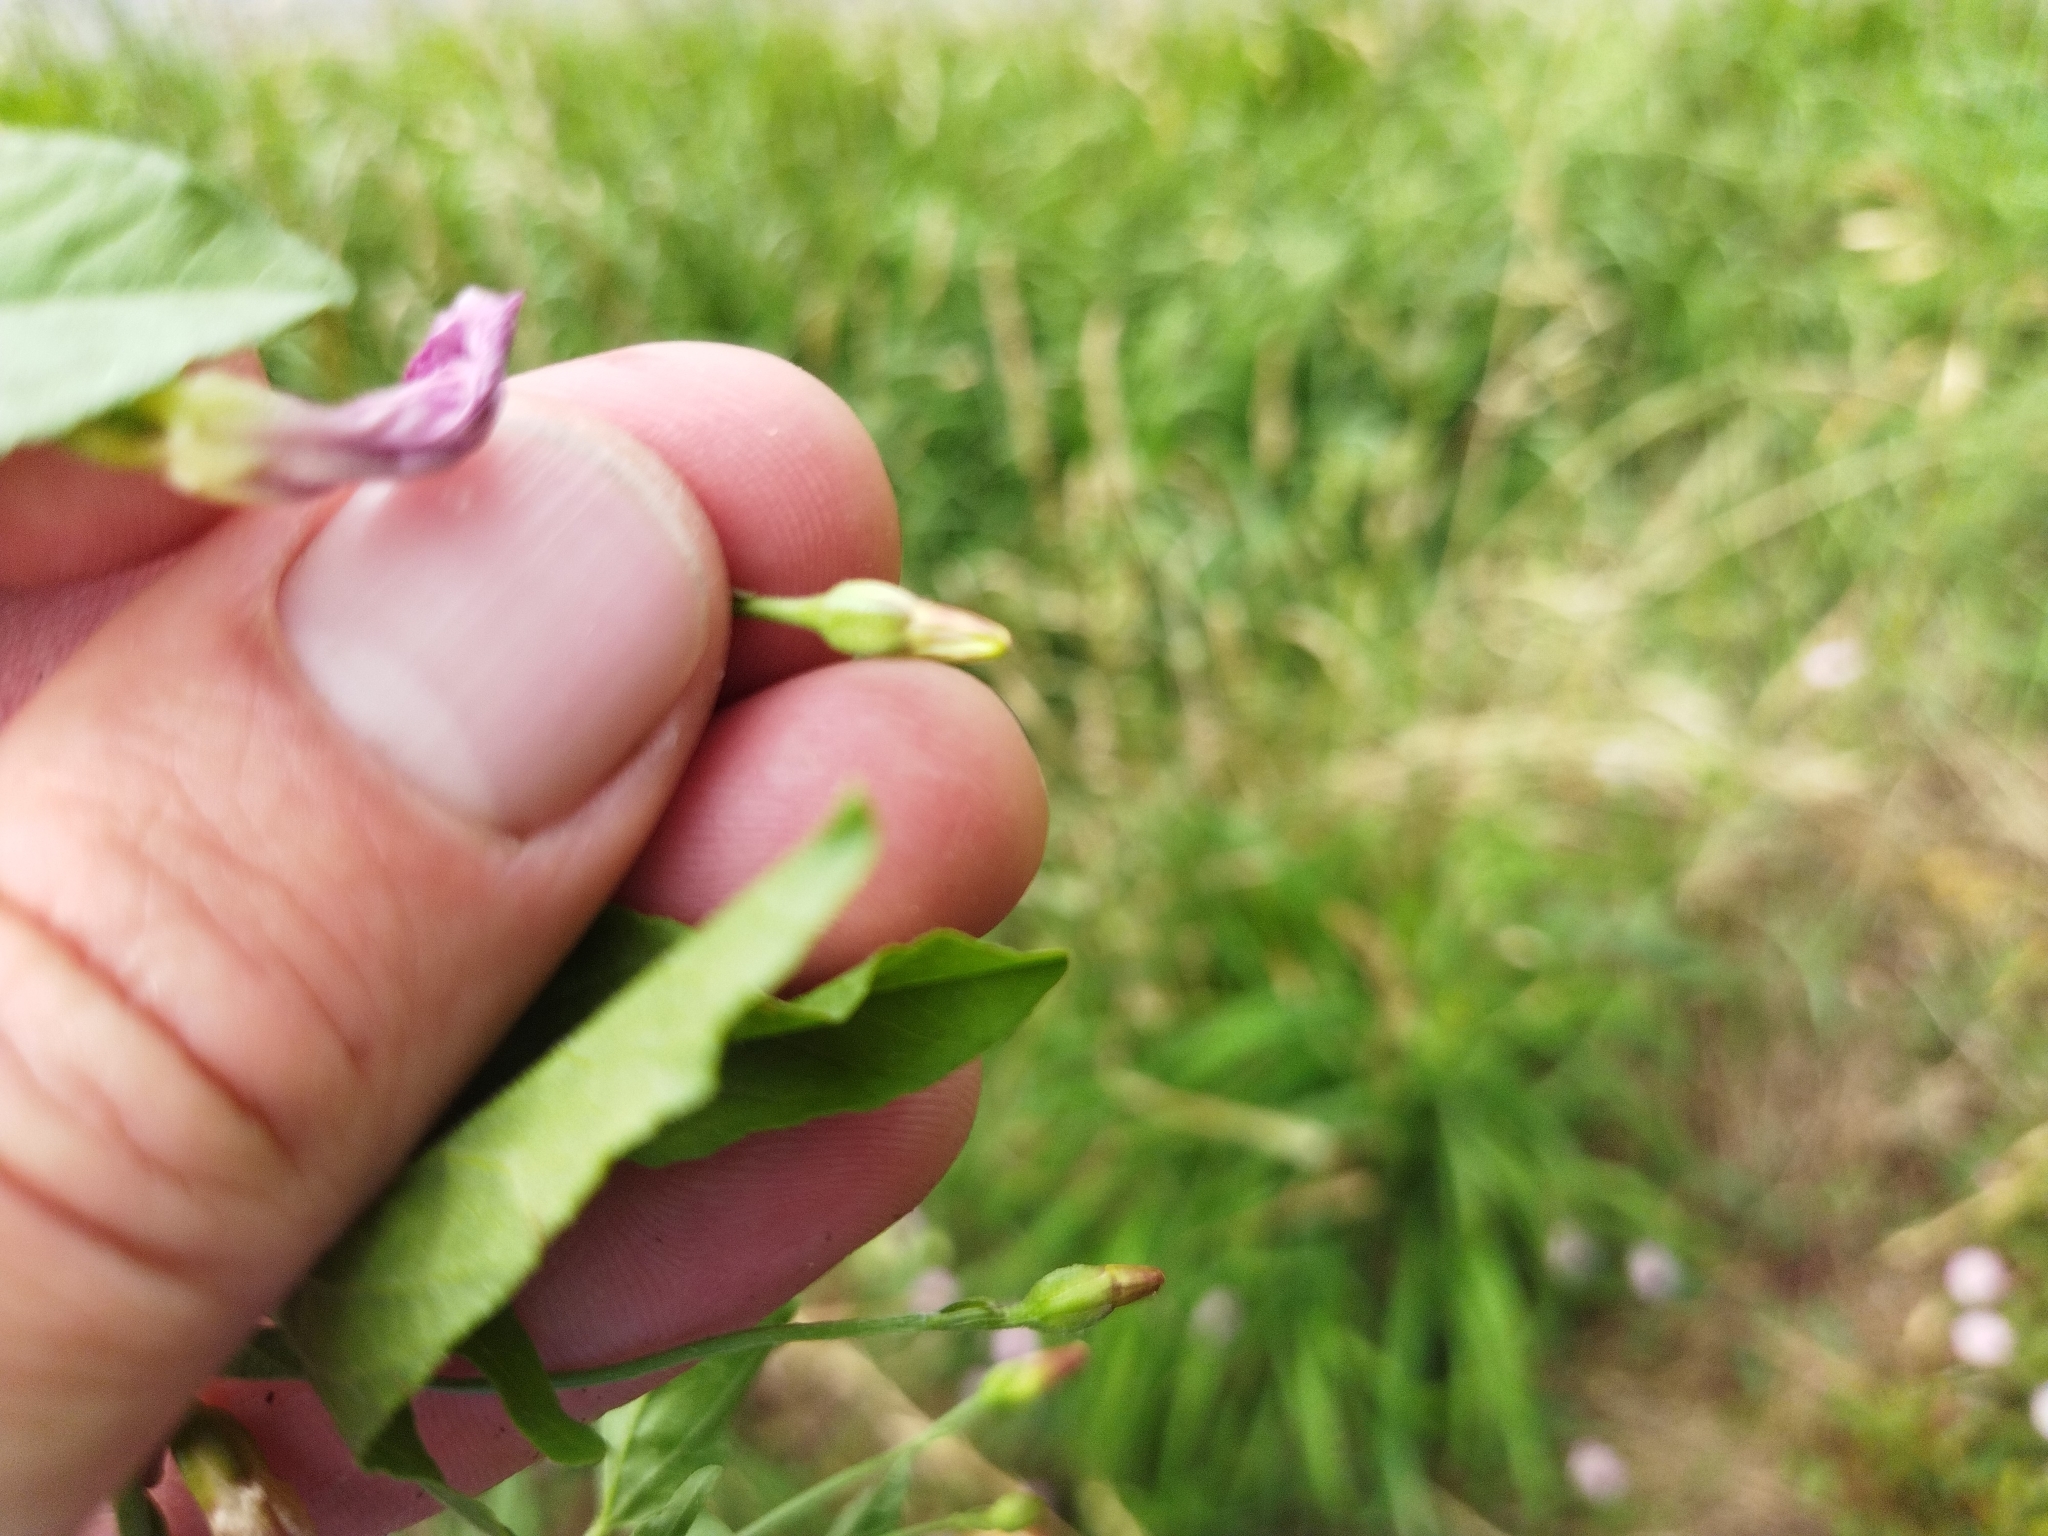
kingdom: Plantae
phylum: Tracheophyta
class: Magnoliopsida
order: Solanales
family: Convolvulaceae
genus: Convolvulus
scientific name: Convolvulus arvensis
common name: Field bindweed
